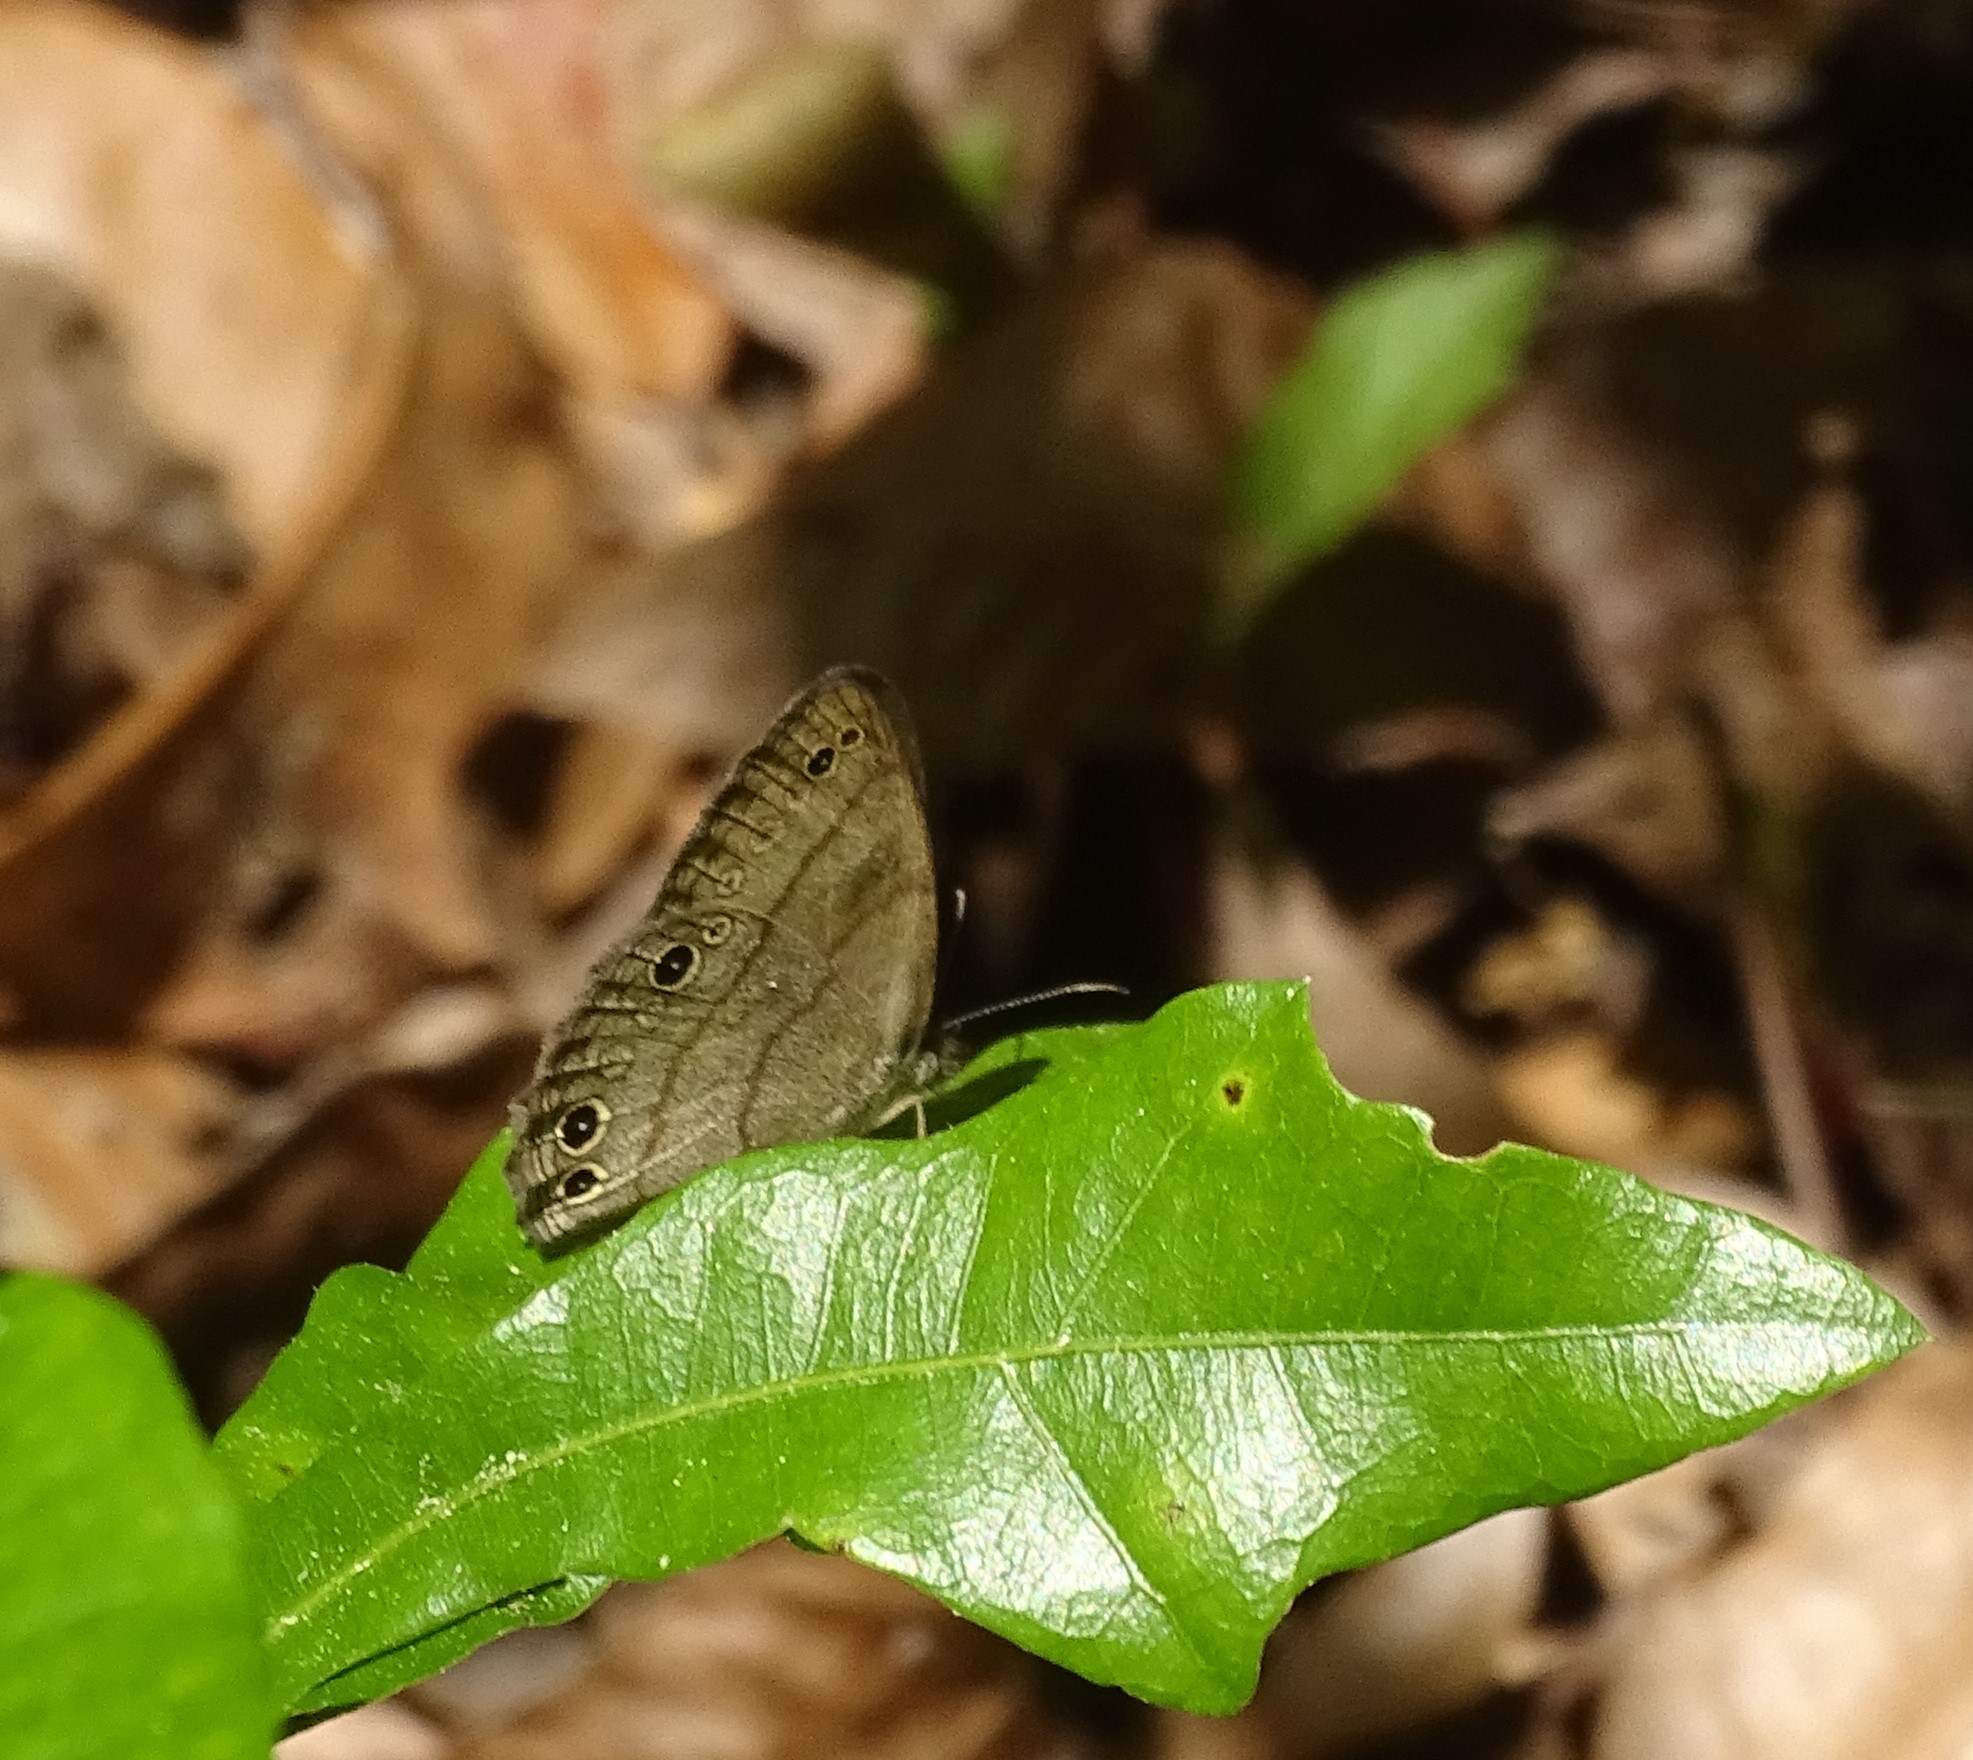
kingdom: Animalia
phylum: Arthropoda
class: Insecta
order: Lepidoptera
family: Nymphalidae
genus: Hermeuptychia
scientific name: Hermeuptychia intricata
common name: Intricate satyr
